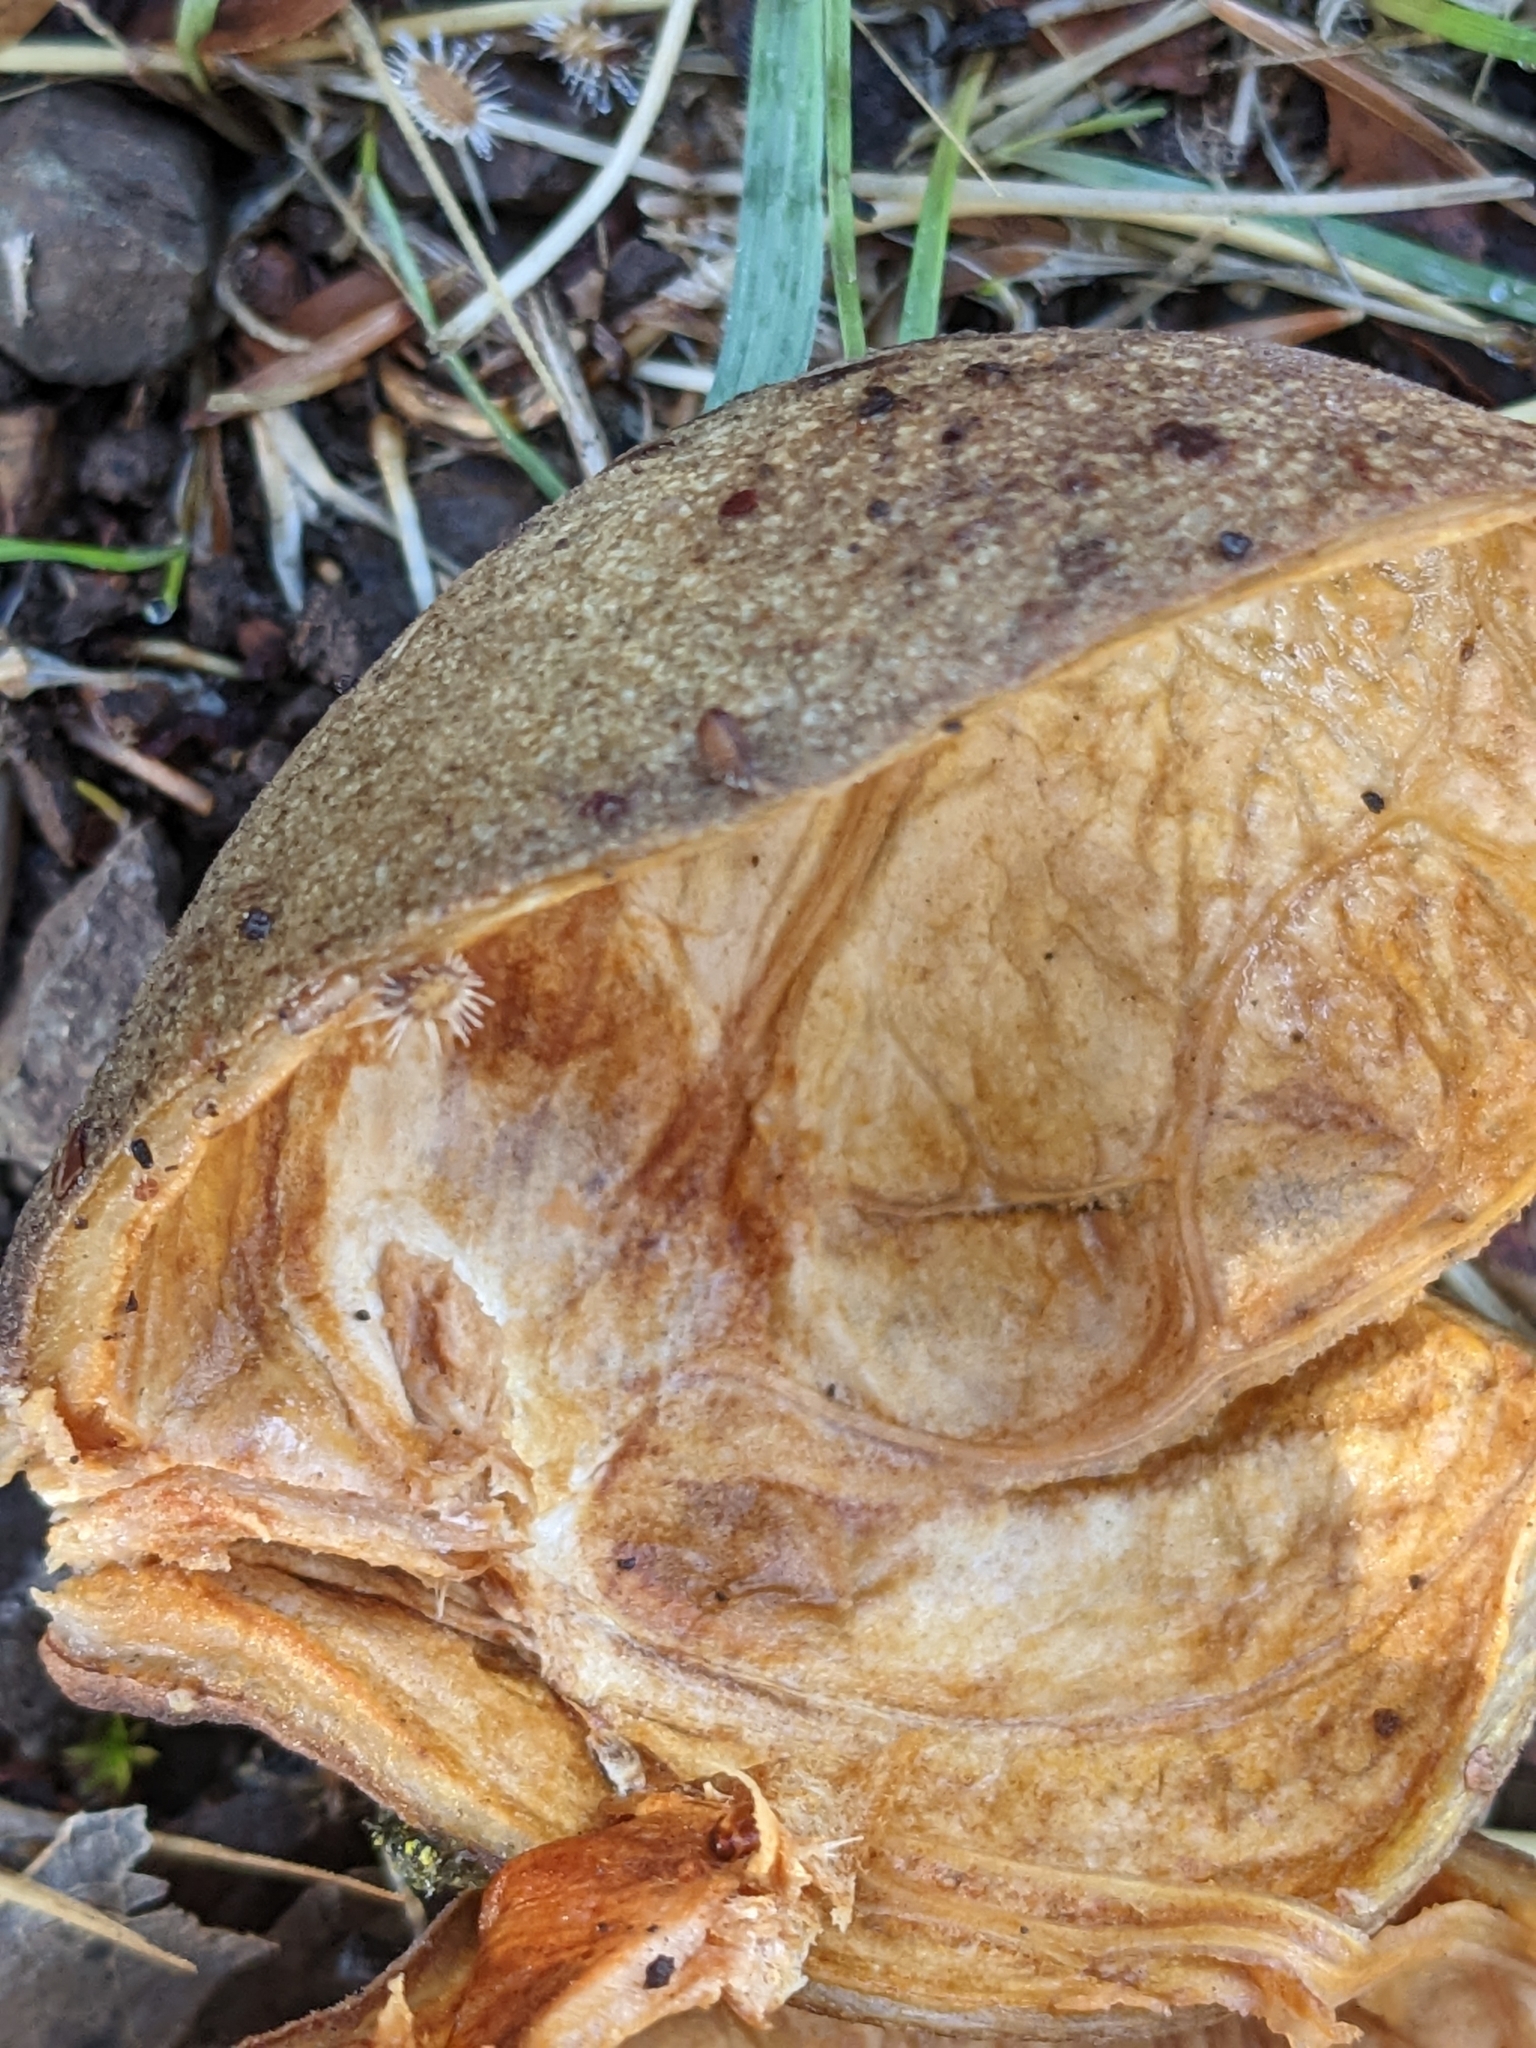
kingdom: Plantae
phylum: Tracheophyta
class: Magnoliopsida
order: Sapindales
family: Sapindaceae
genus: Aesculus
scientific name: Aesculus californica
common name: California buckeye
